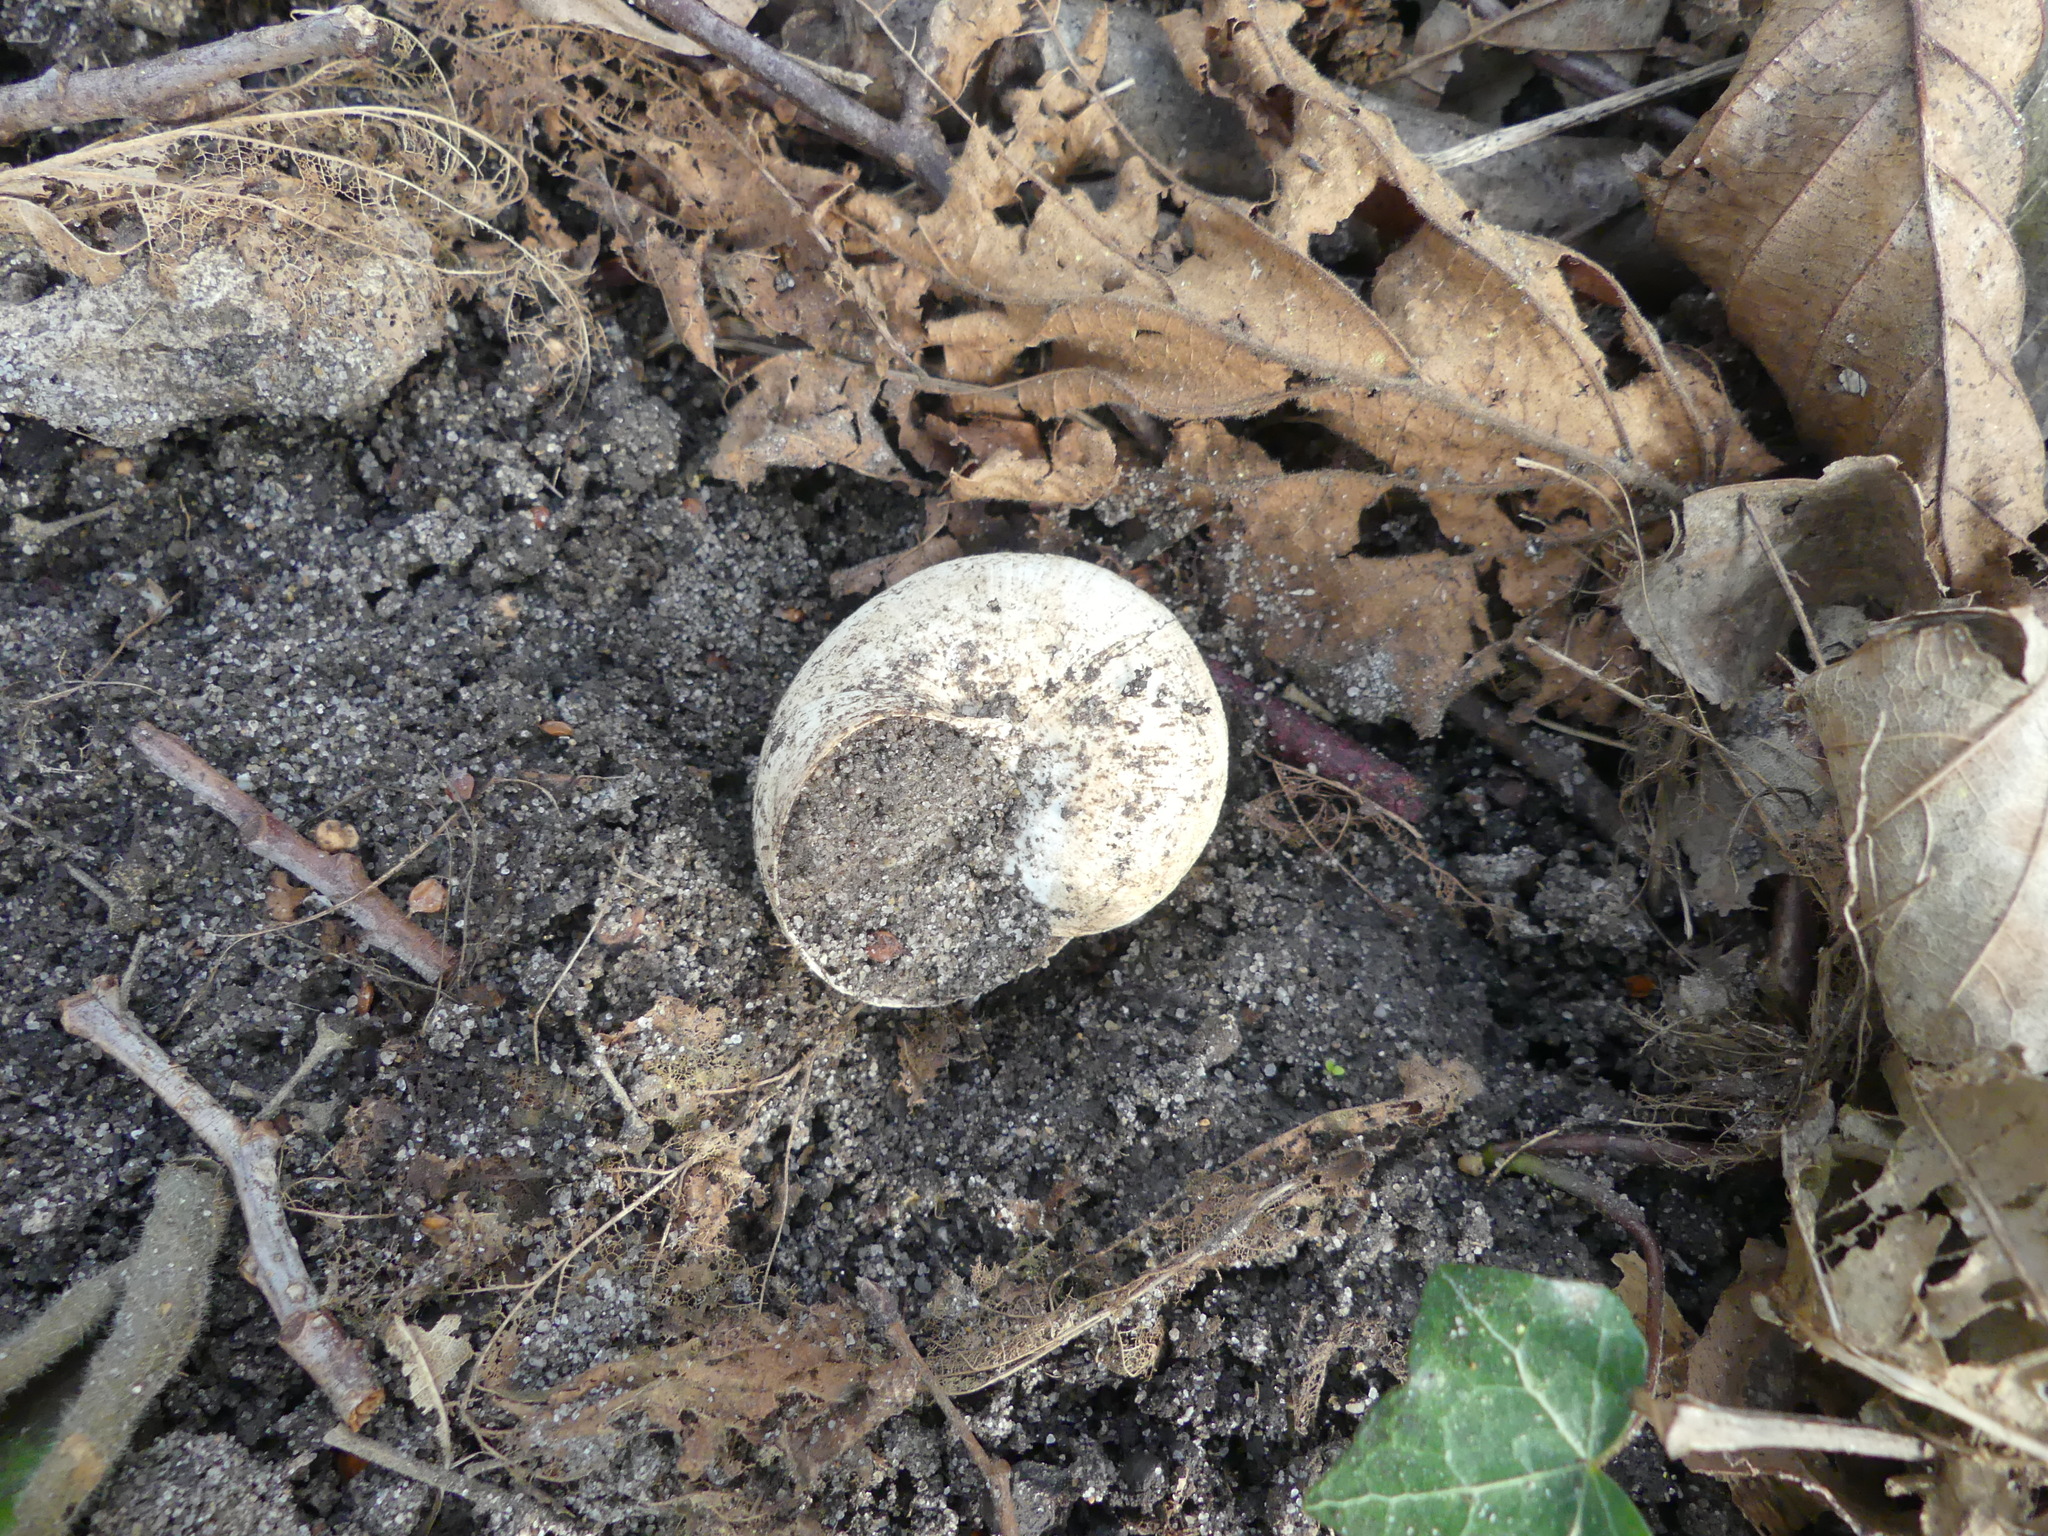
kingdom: Animalia
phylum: Mollusca
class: Gastropoda
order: Stylommatophora
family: Helicidae
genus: Helix
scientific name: Helix pomatia
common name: Roman snail
